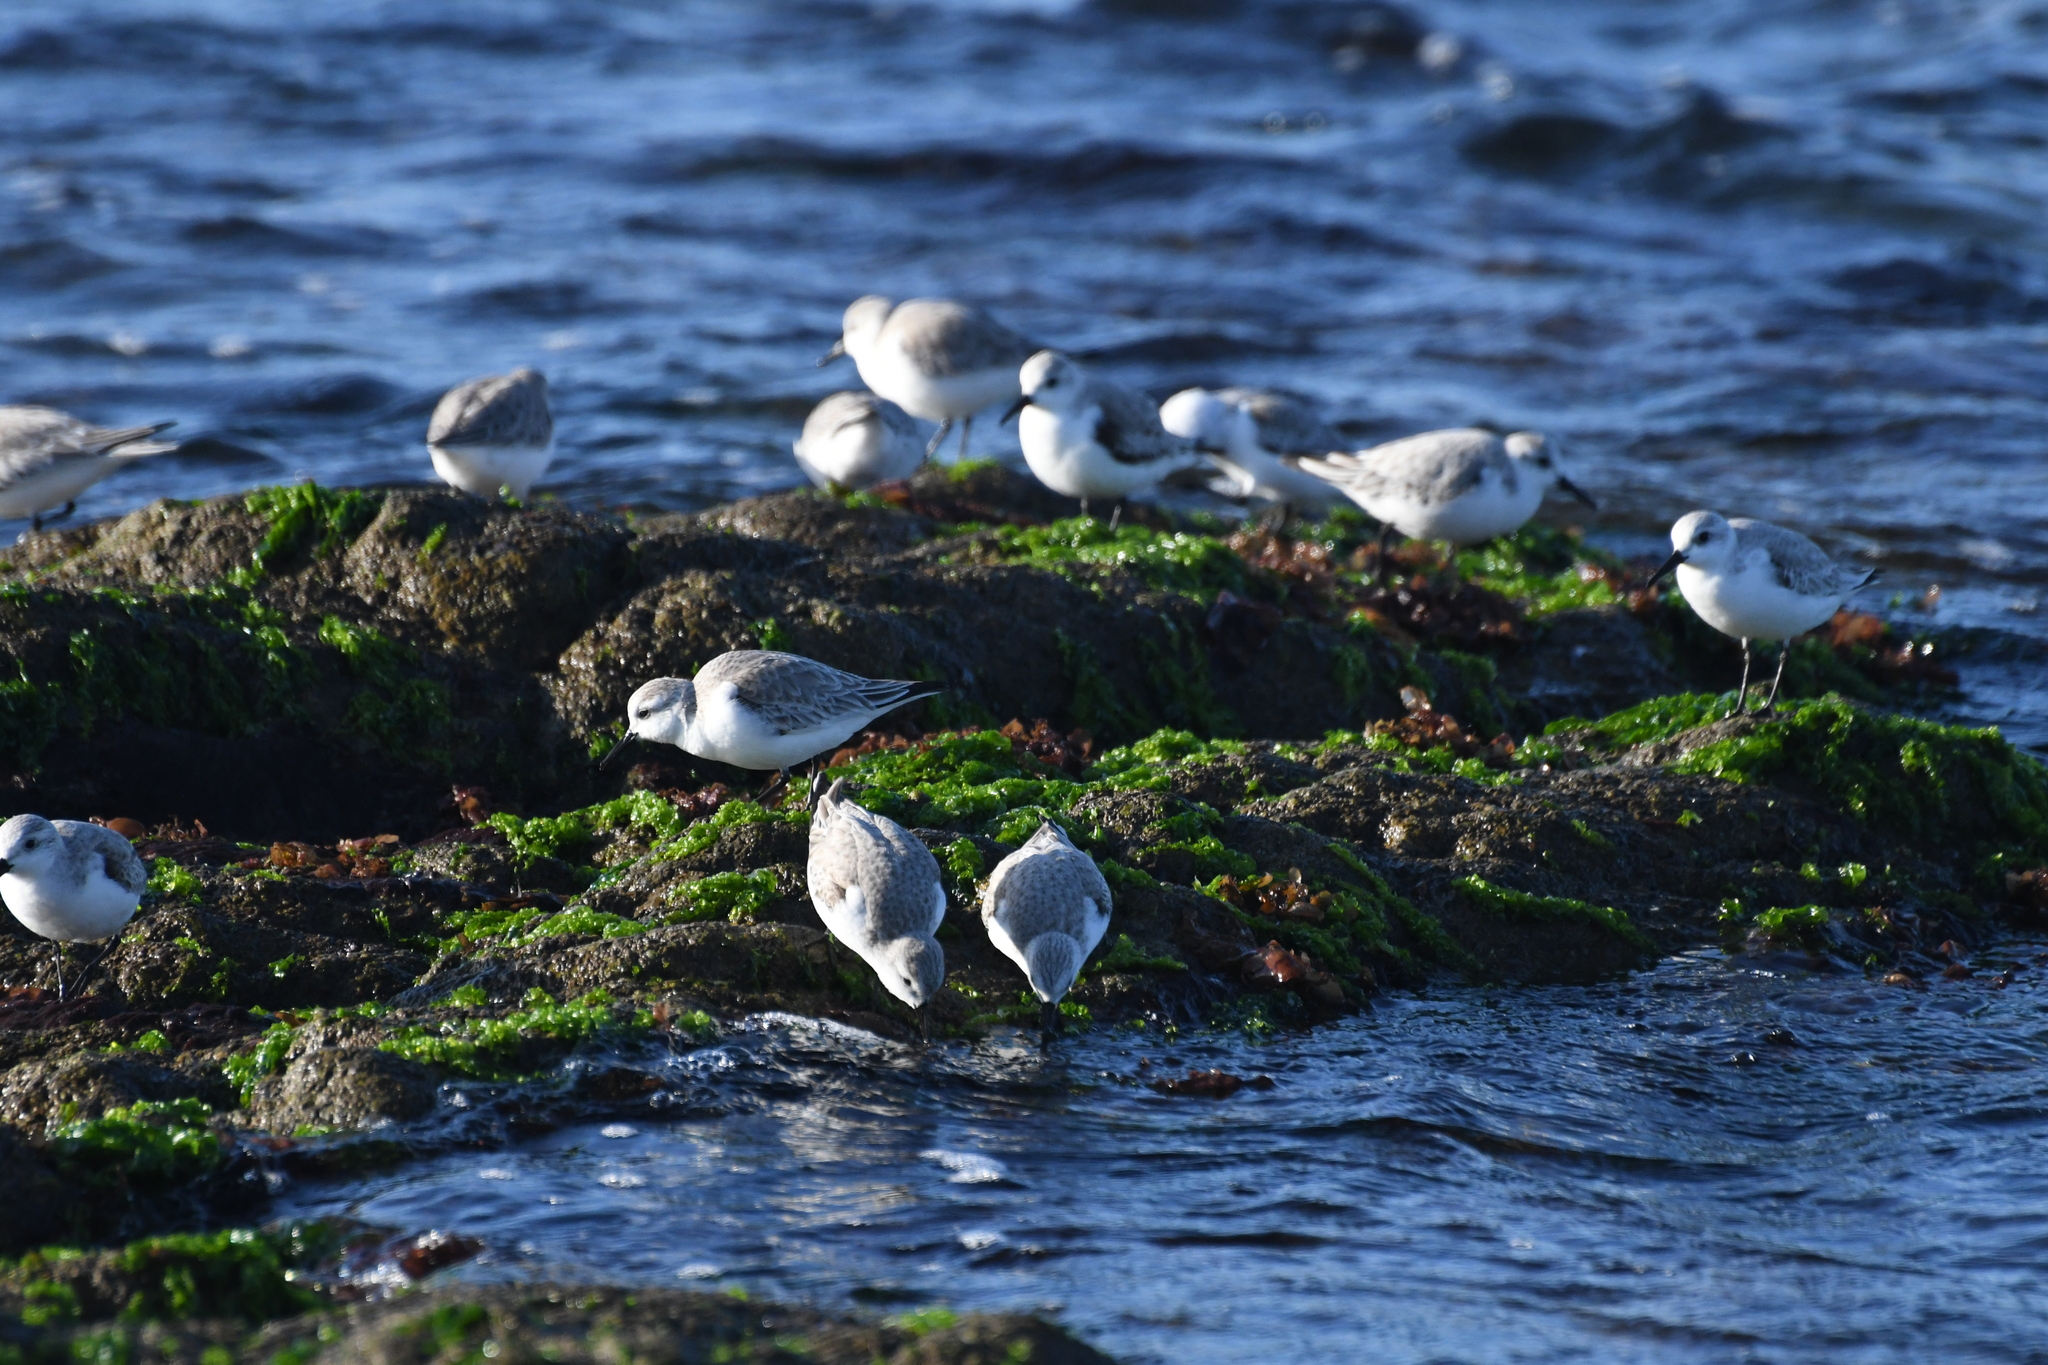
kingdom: Animalia
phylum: Chordata
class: Aves
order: Charadriiformes
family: Scolopacidae
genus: Calidris
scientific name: Calidris alba
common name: Sanderling
